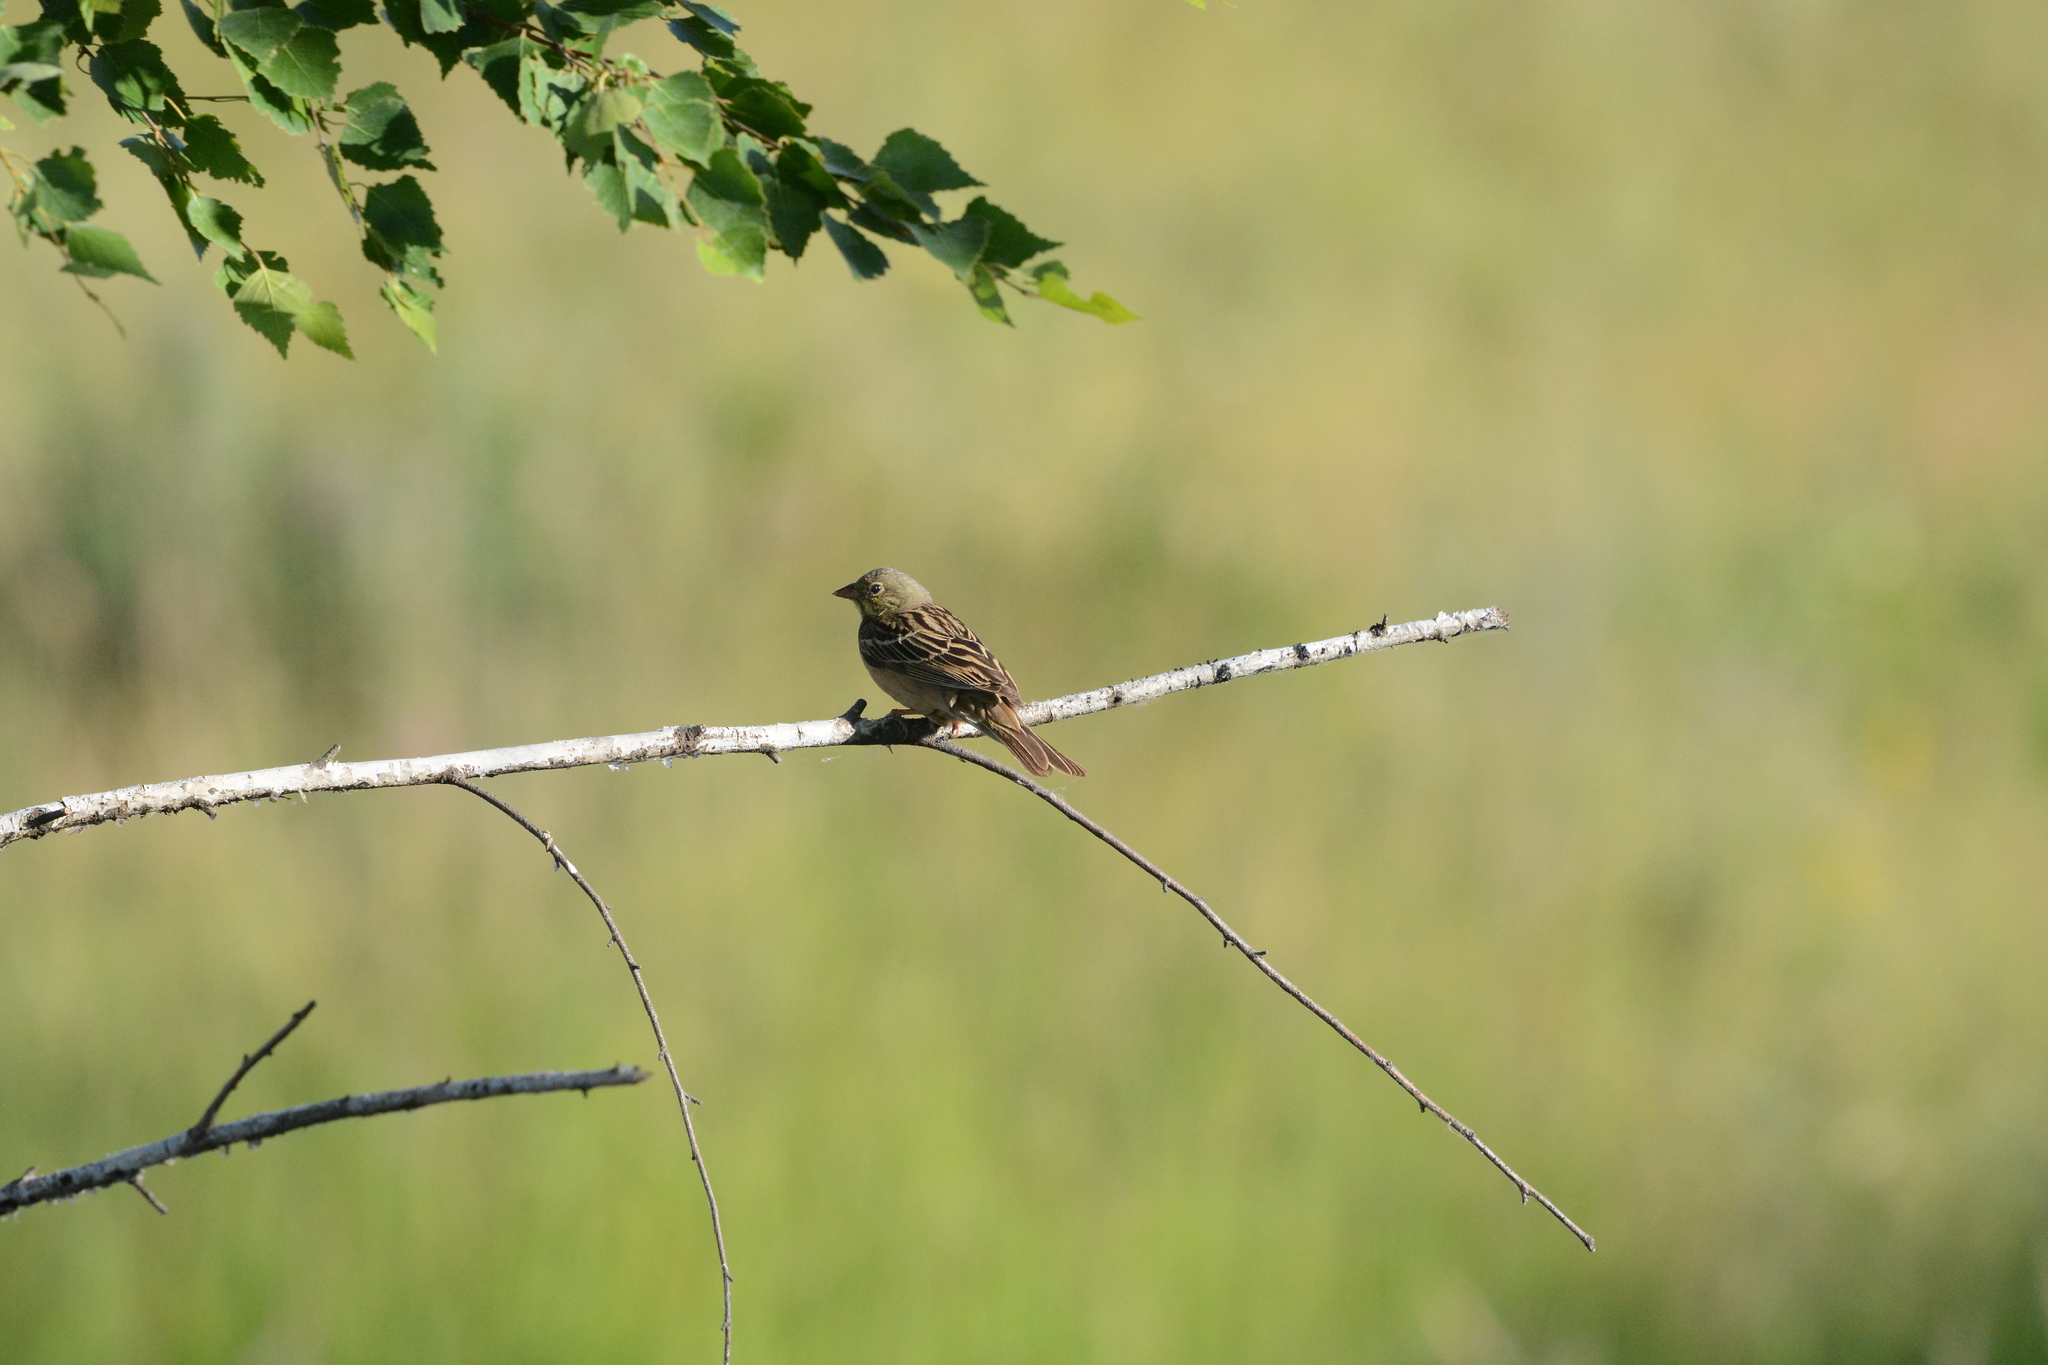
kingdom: Animalia
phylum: Chordata
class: Aves
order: Passeriformes
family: Emberizidae
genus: Emberiza
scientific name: Emberiza hortulana
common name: Ortolan bunting
